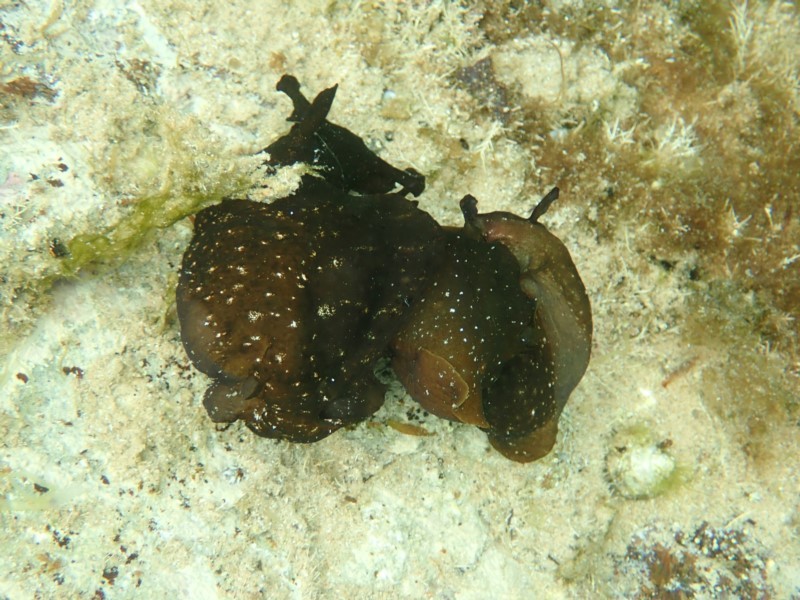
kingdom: Animalia
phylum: Mollusca
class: Gastropoda
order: Aplysiida
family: Aplysiidae
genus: Aplysia
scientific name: Aplysia juliana
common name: Walking sea hare
